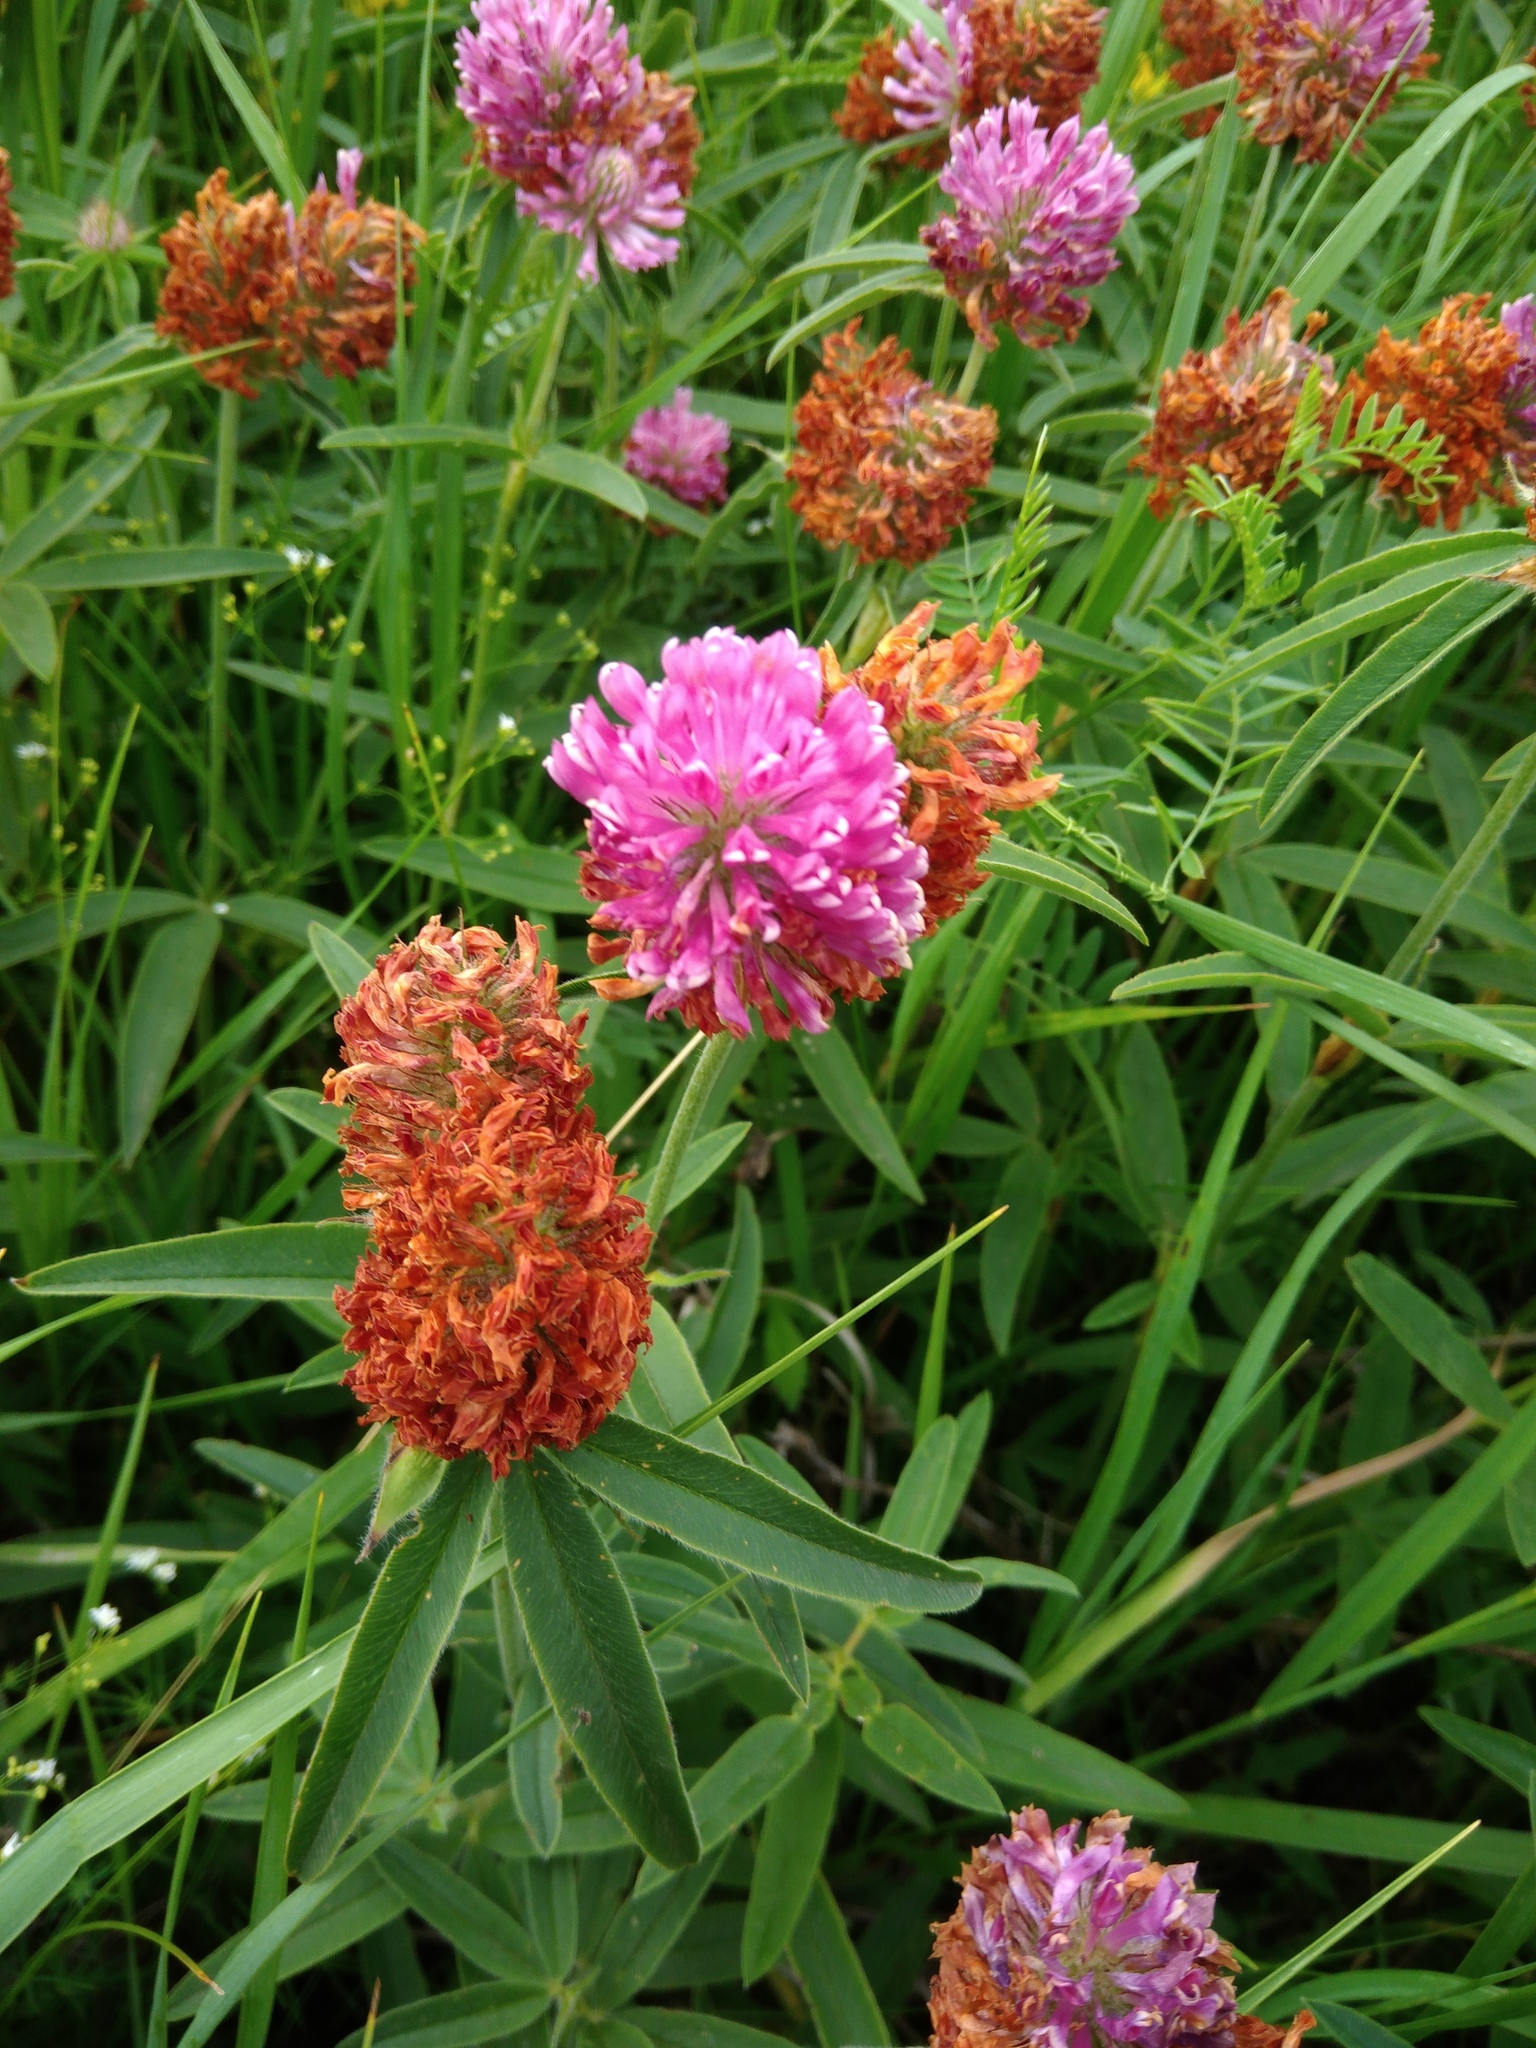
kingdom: Plantae
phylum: Tracheophyta
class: Magnoliopsida
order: Fabales
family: Fabaceae
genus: Trifolium
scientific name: Trifolium alpestre
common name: Owl-head clover
